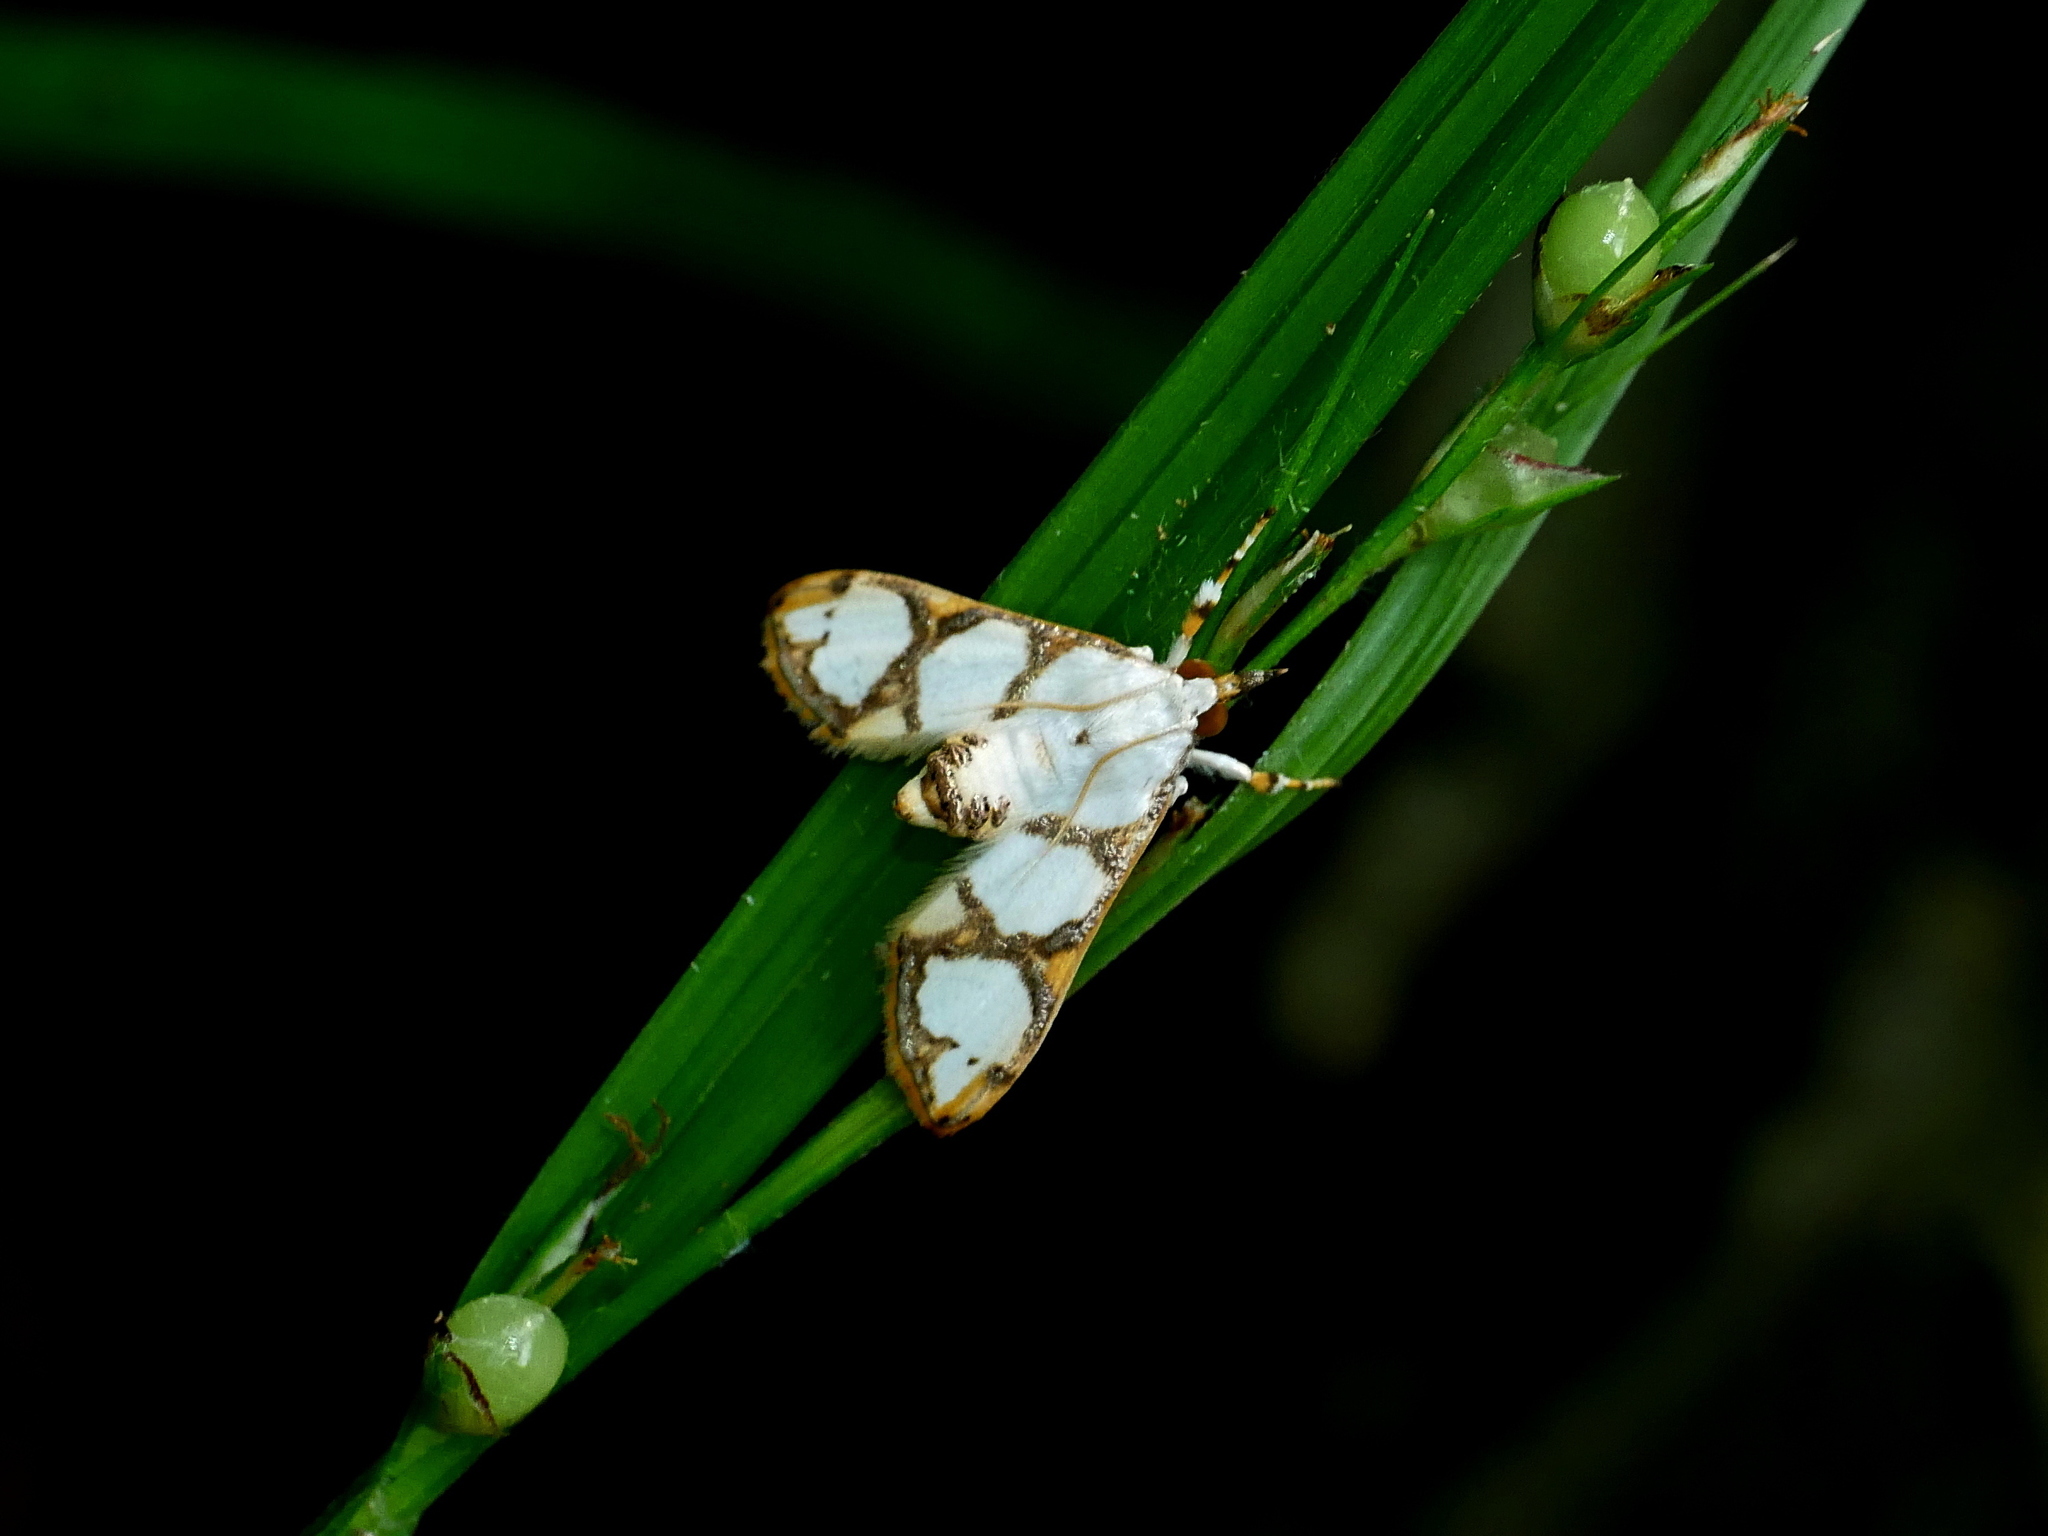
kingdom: Animalia
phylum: Arthropoda
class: Insecta
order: Lepidoptera
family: Crambidae
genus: Cirrhochrista
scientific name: Cirrhochrista kosemponialis
